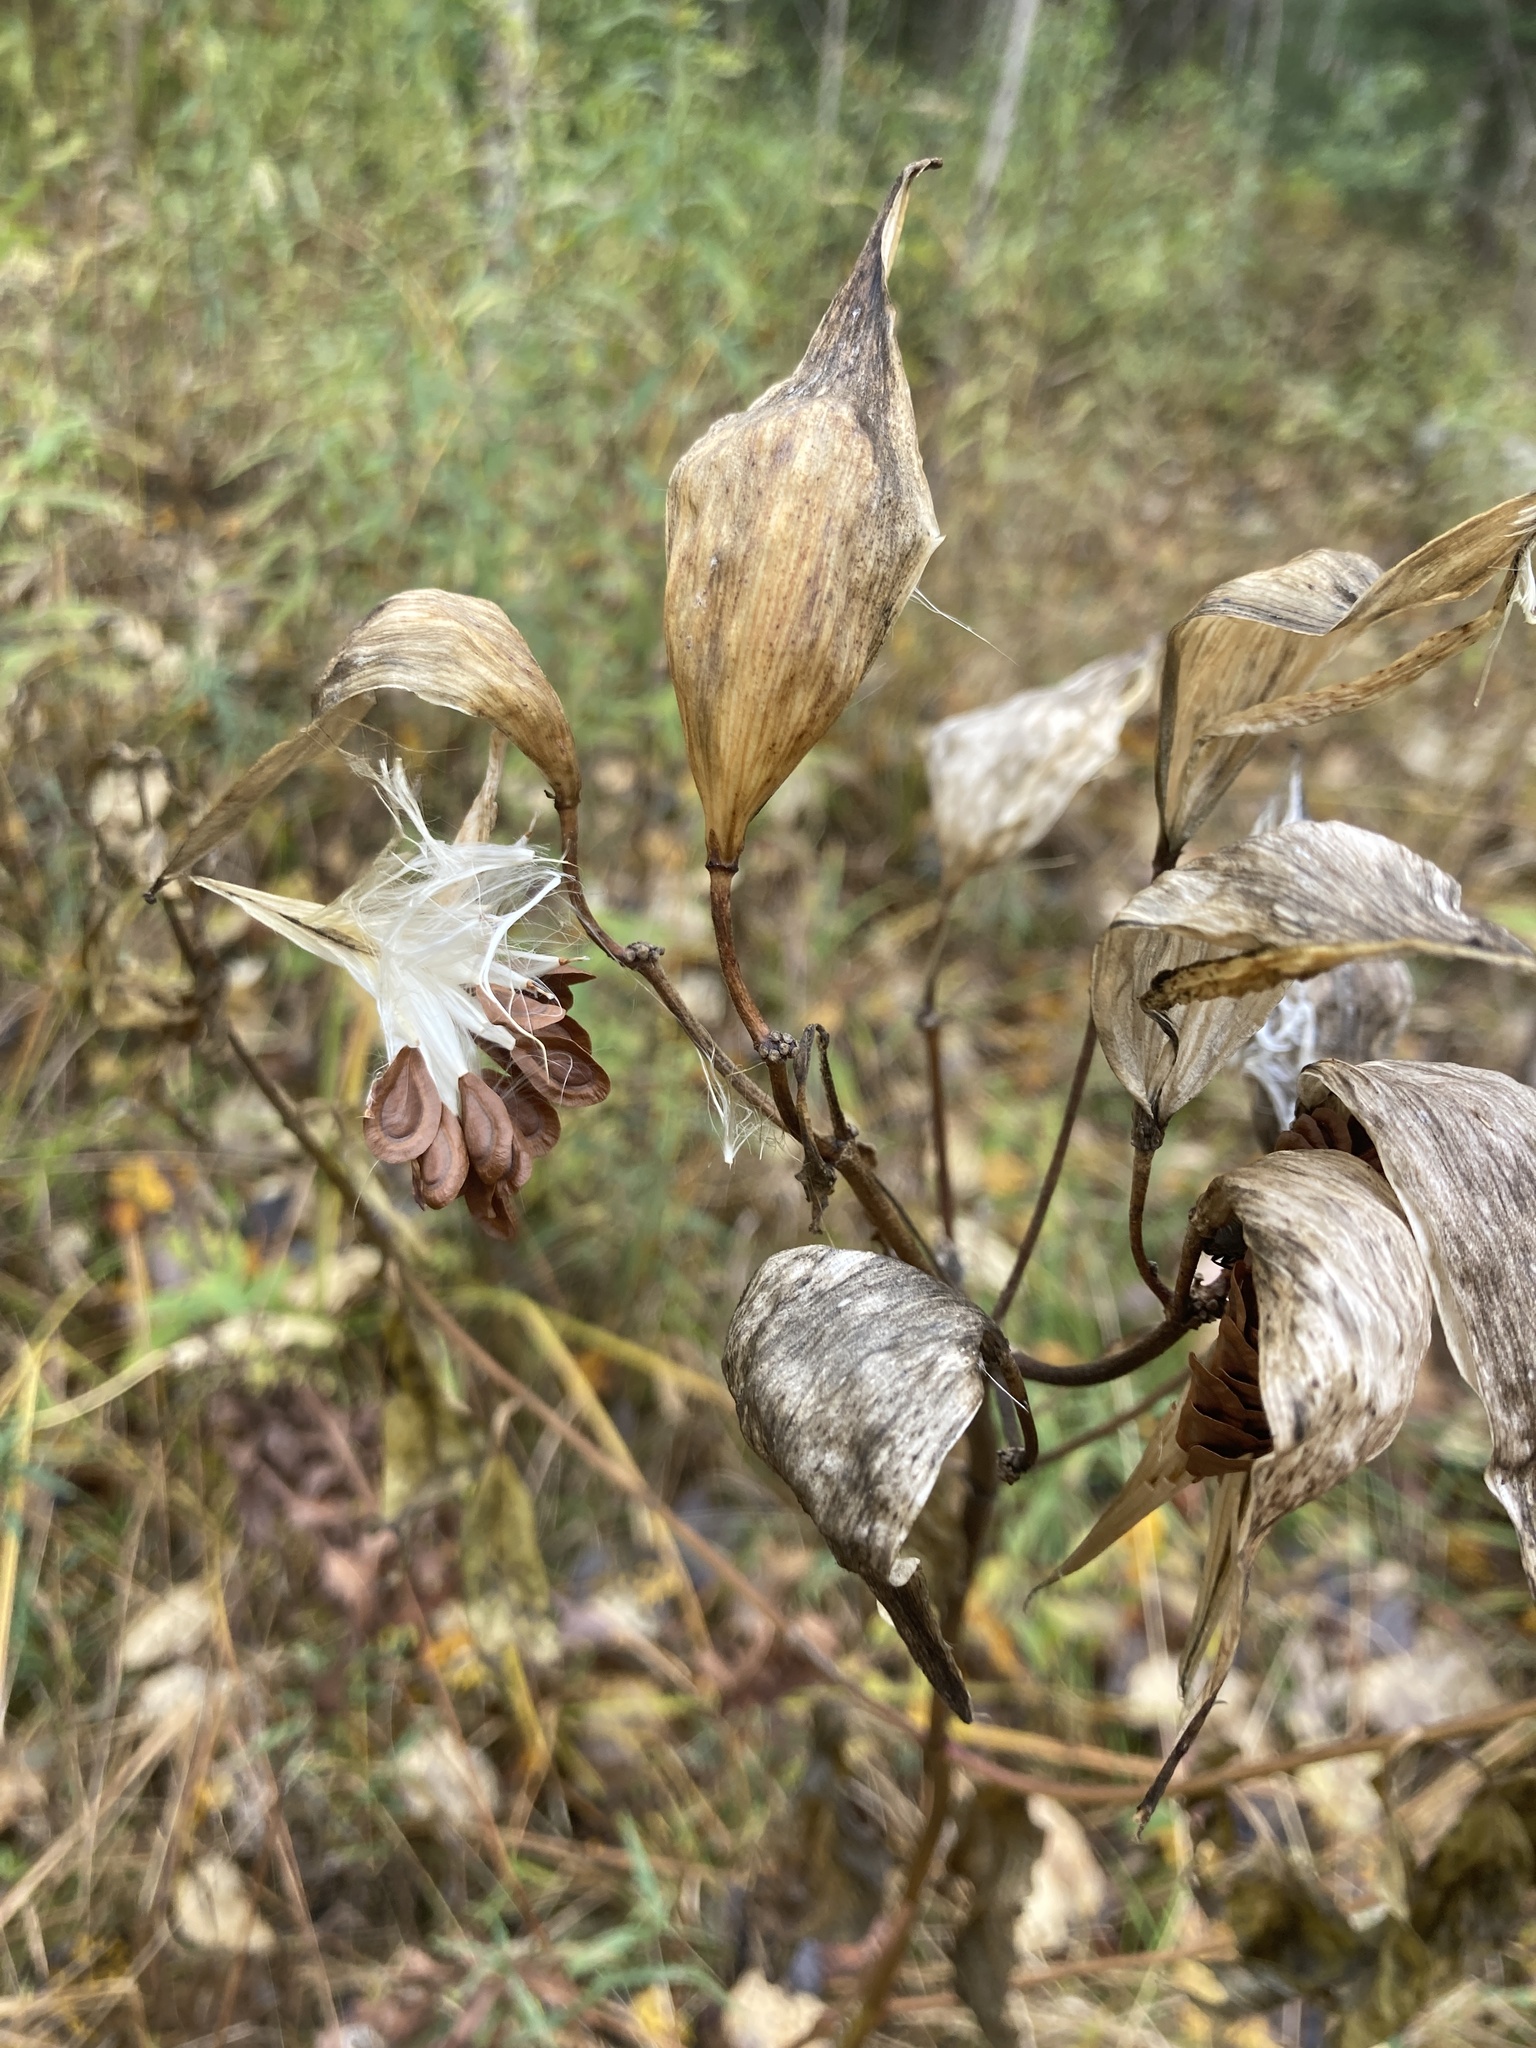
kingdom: Plantae
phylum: Tracheophyta
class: Magnoliopsida
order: Gentianales
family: Apocynaceae
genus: Asclepias
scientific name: Asclepias incarnata
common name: Swamp milkweed
